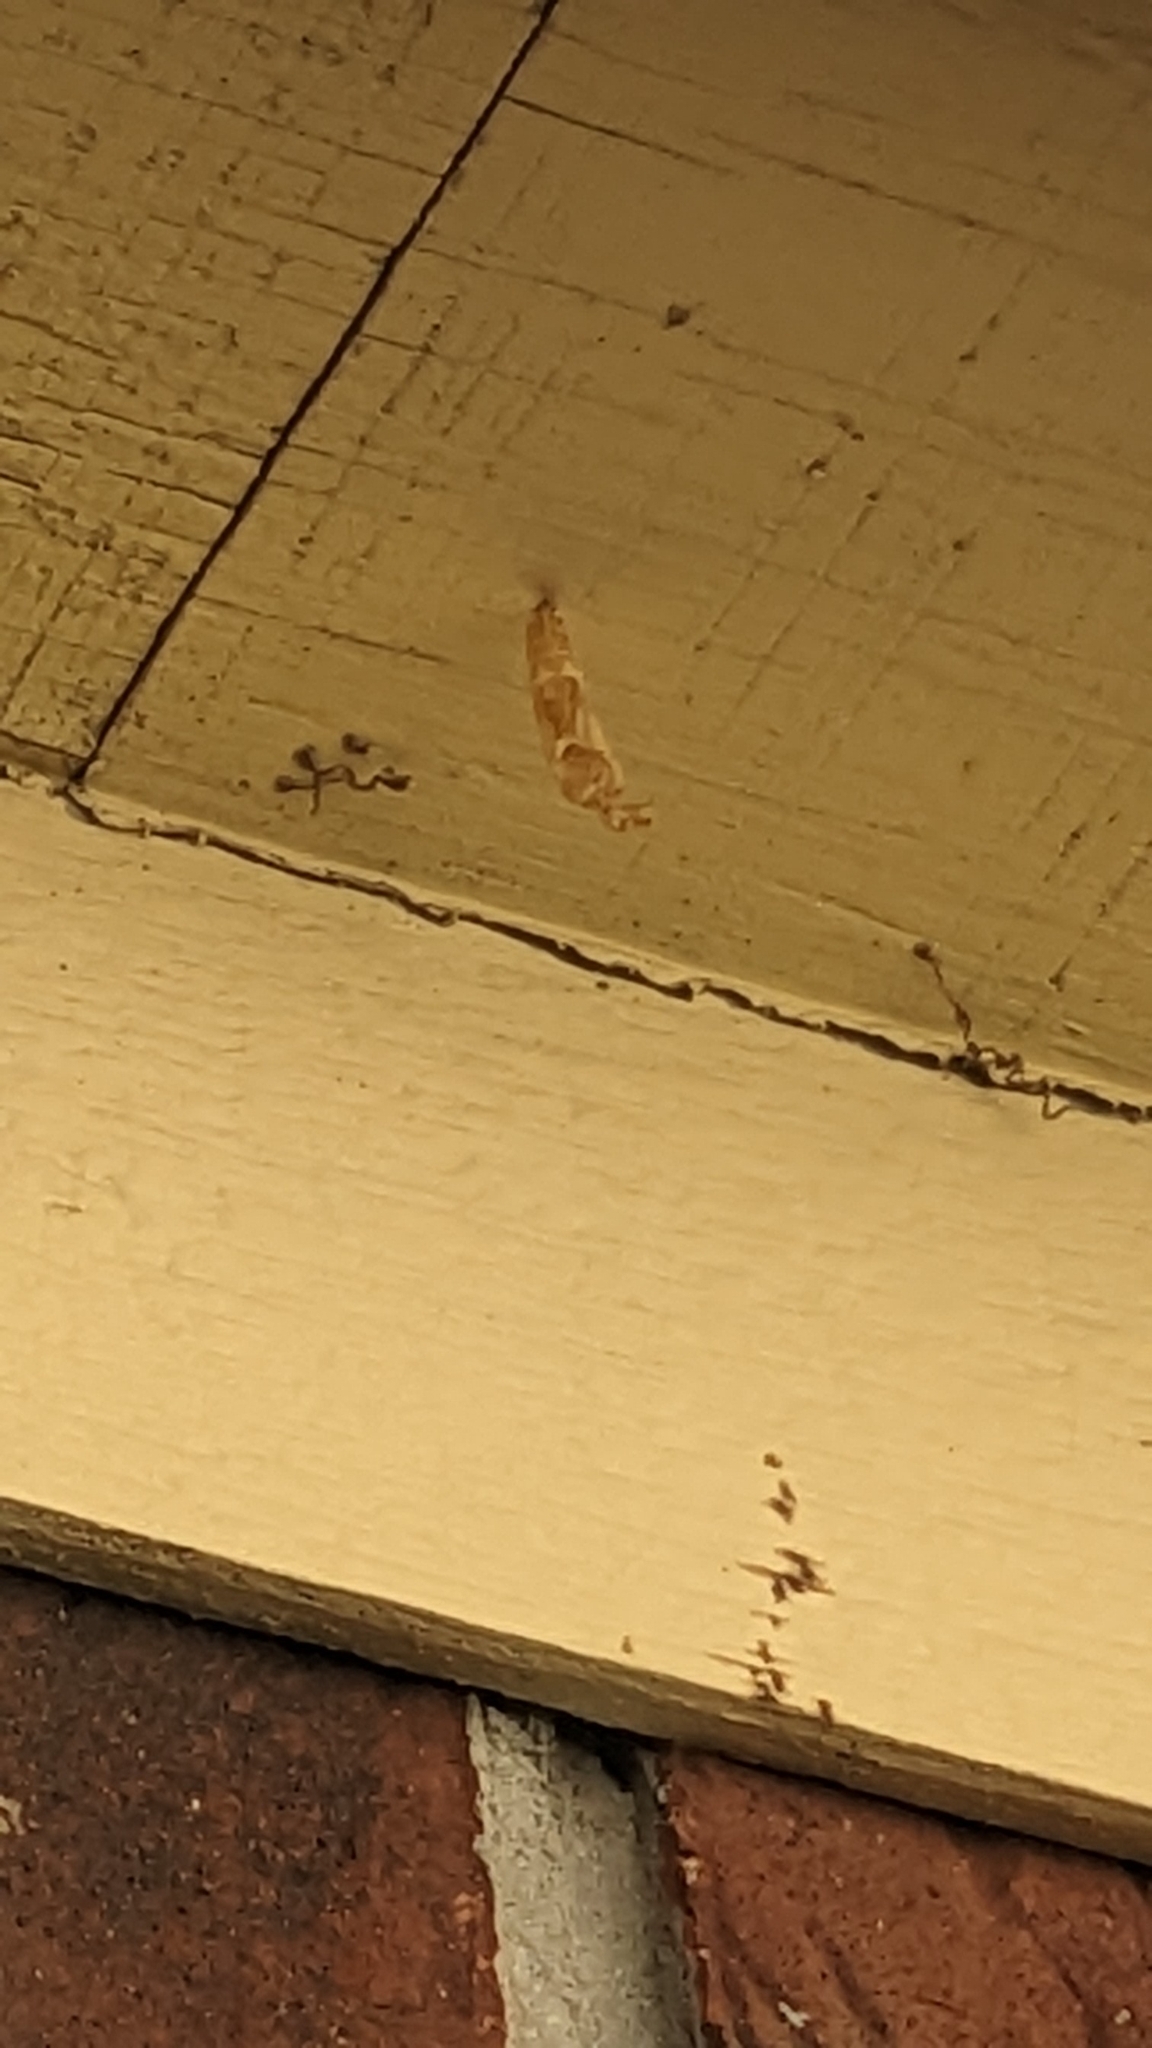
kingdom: Animalia
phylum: Arthropoda
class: Insecta
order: Lepidoptera
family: Nymphalidae
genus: Dione
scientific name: Dione vanillae
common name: Gulf fritillary
